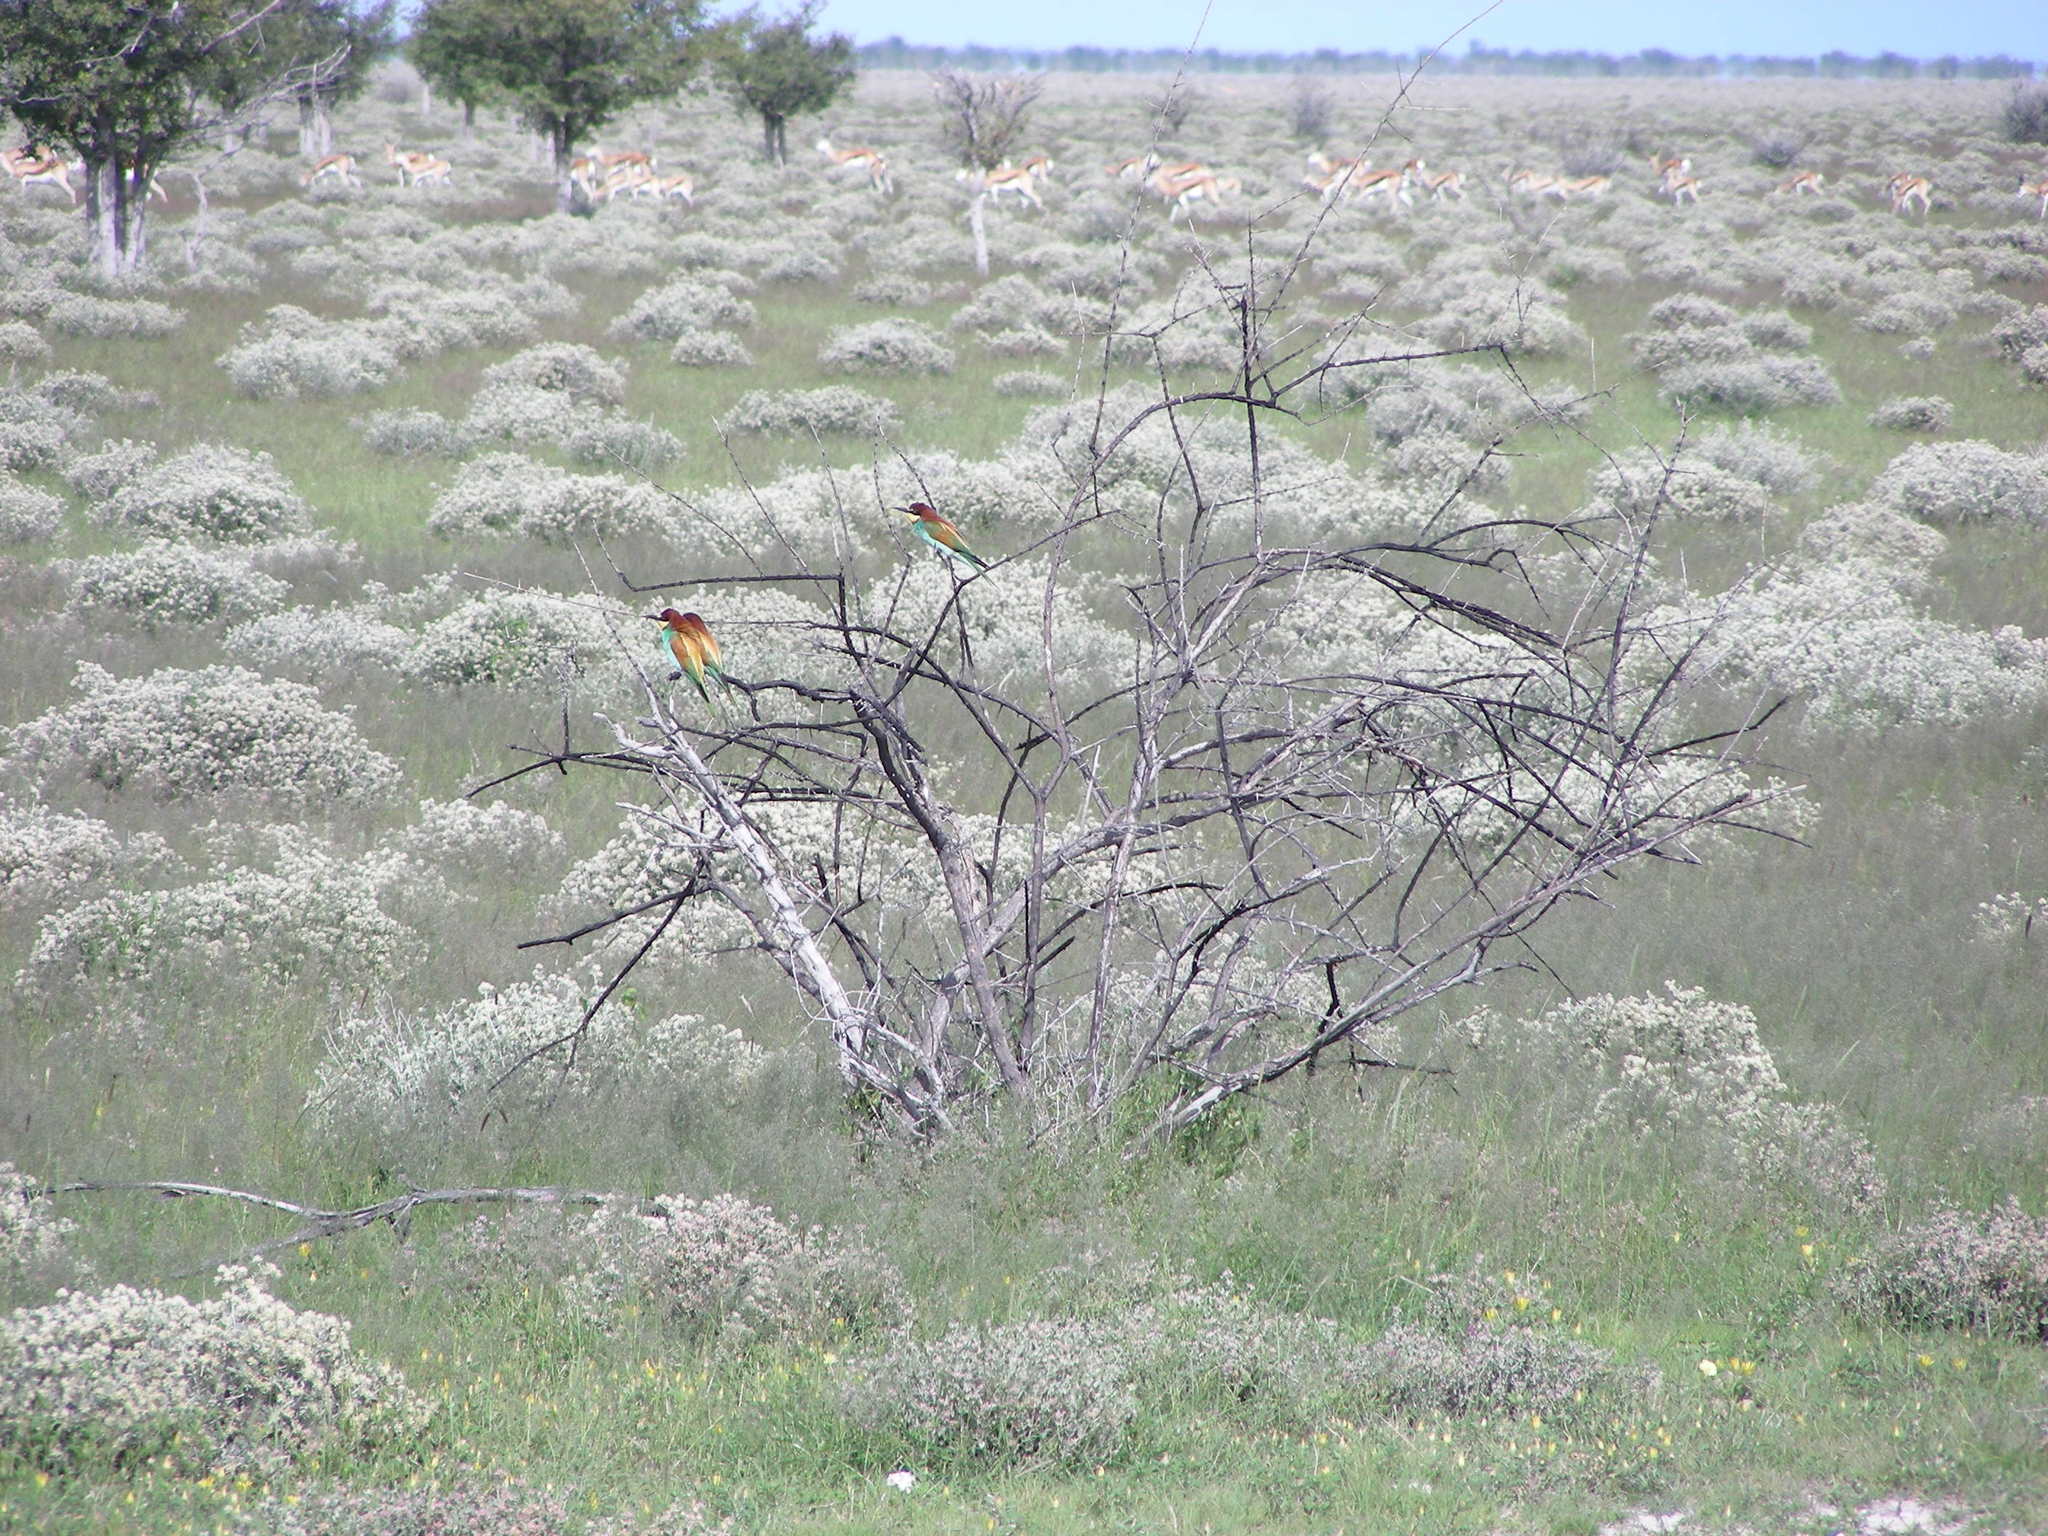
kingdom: Animalia
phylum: Chordata
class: Aves
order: Coraciiformes
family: Meropidae
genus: Merops
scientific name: Merops apiaster
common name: European bee-eater
